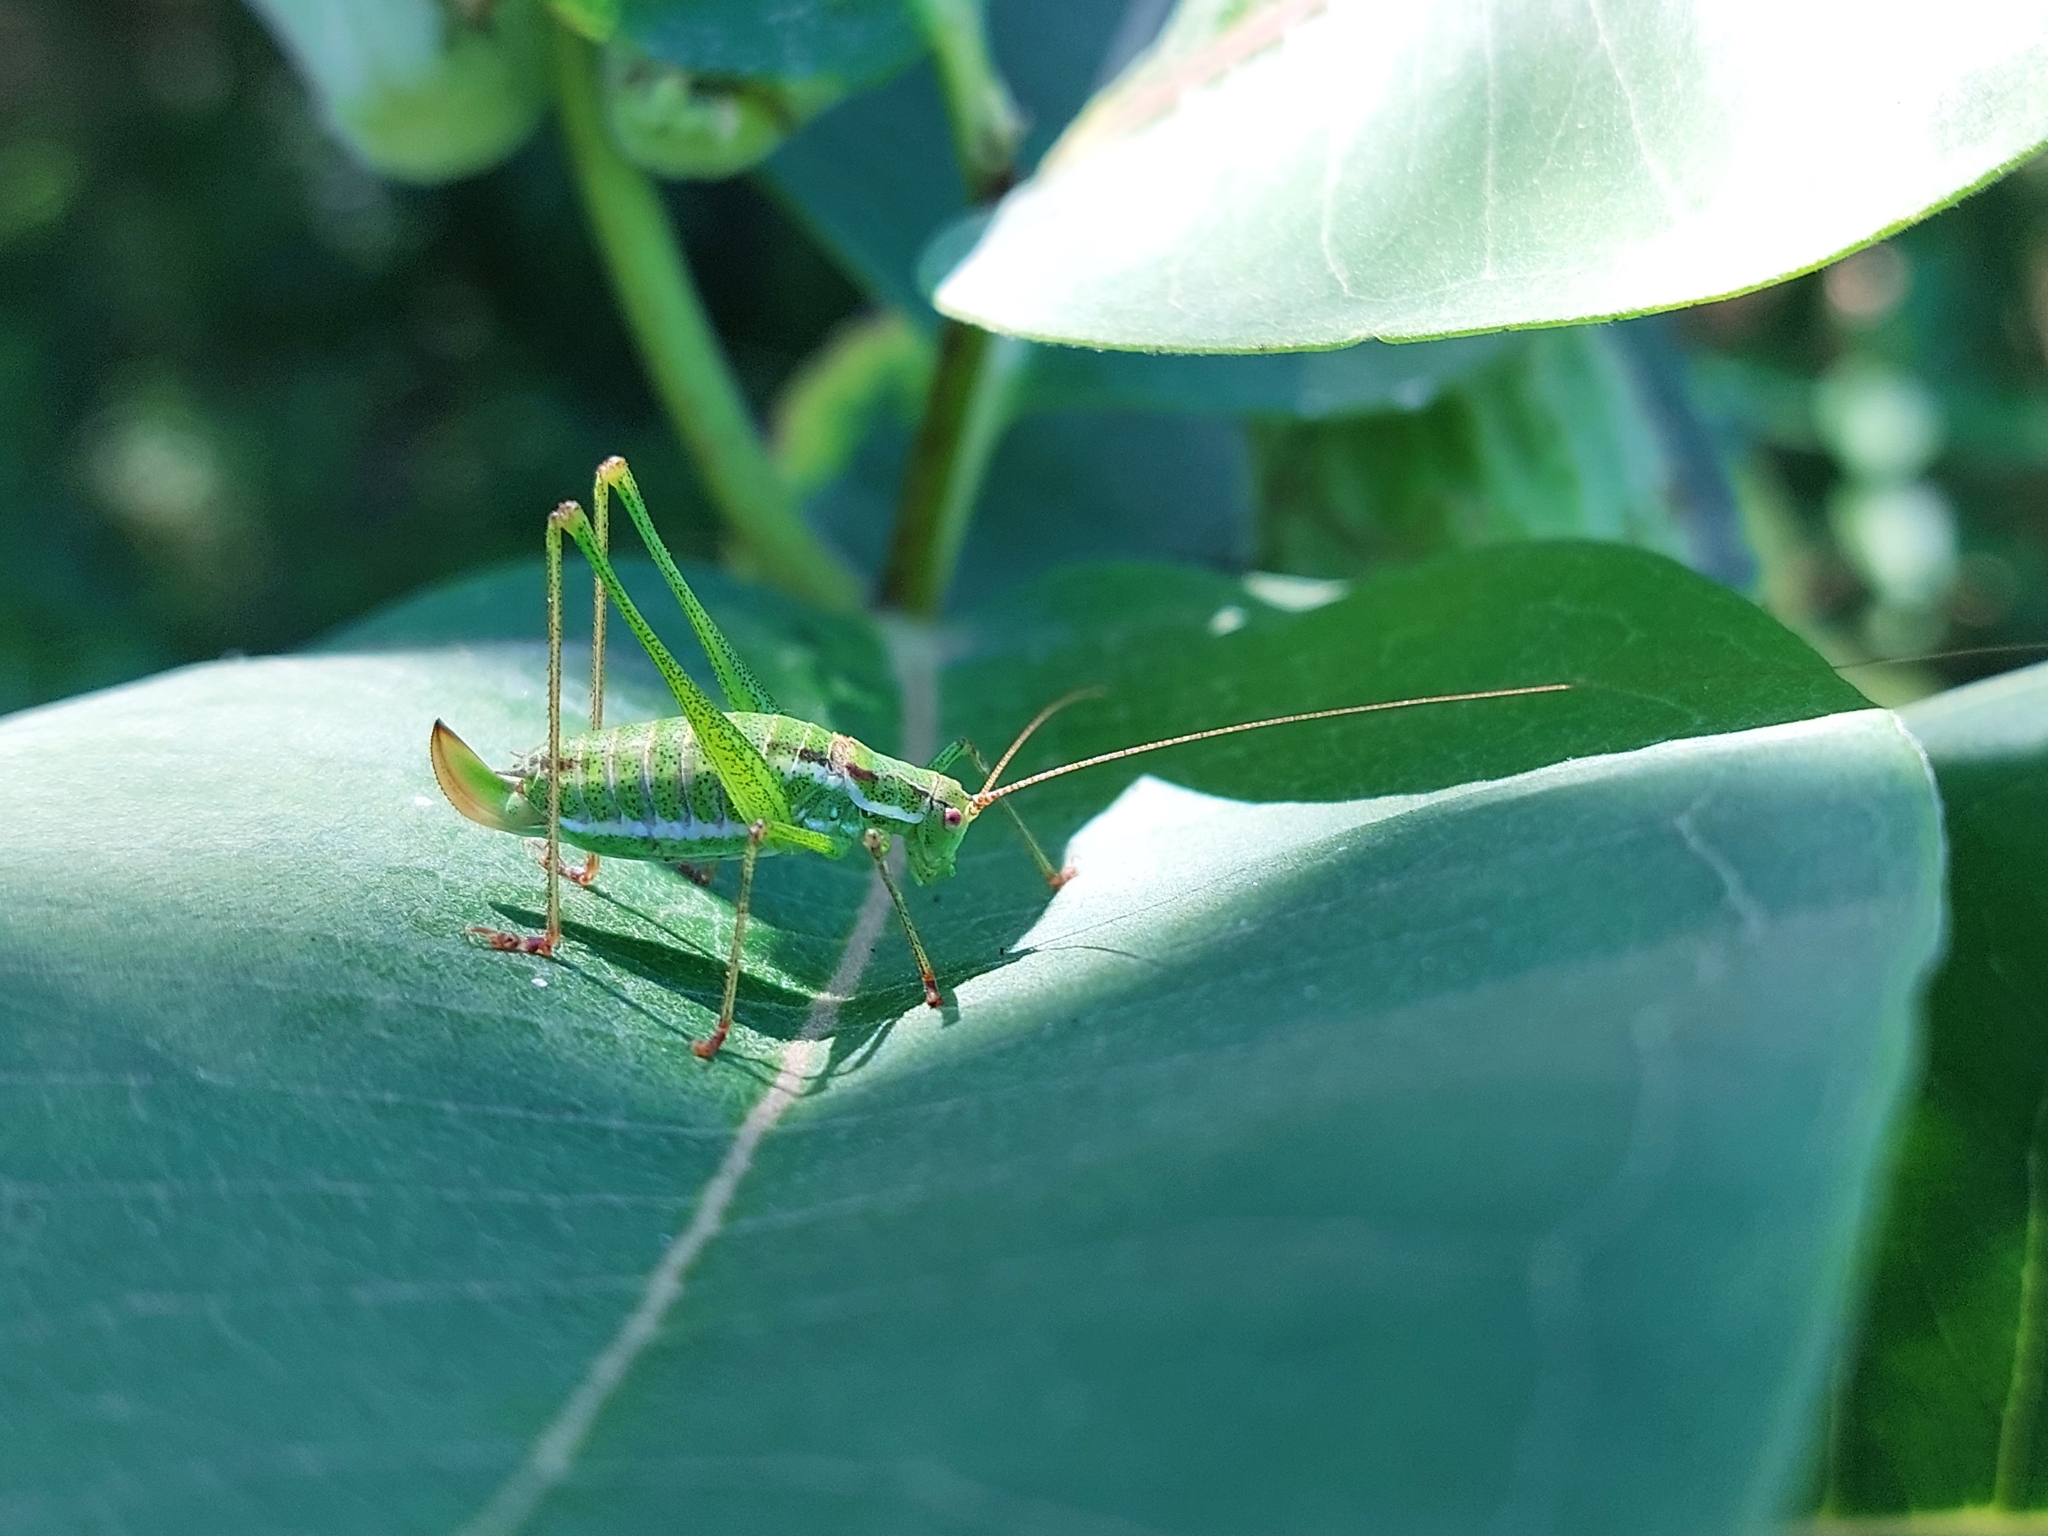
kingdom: Animalia
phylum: Arthropoda
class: Insecta
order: Orthoptera
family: Tettigoniidae
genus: Leptophyes
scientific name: Leptophyes albovittata
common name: Striped bush-cricket
